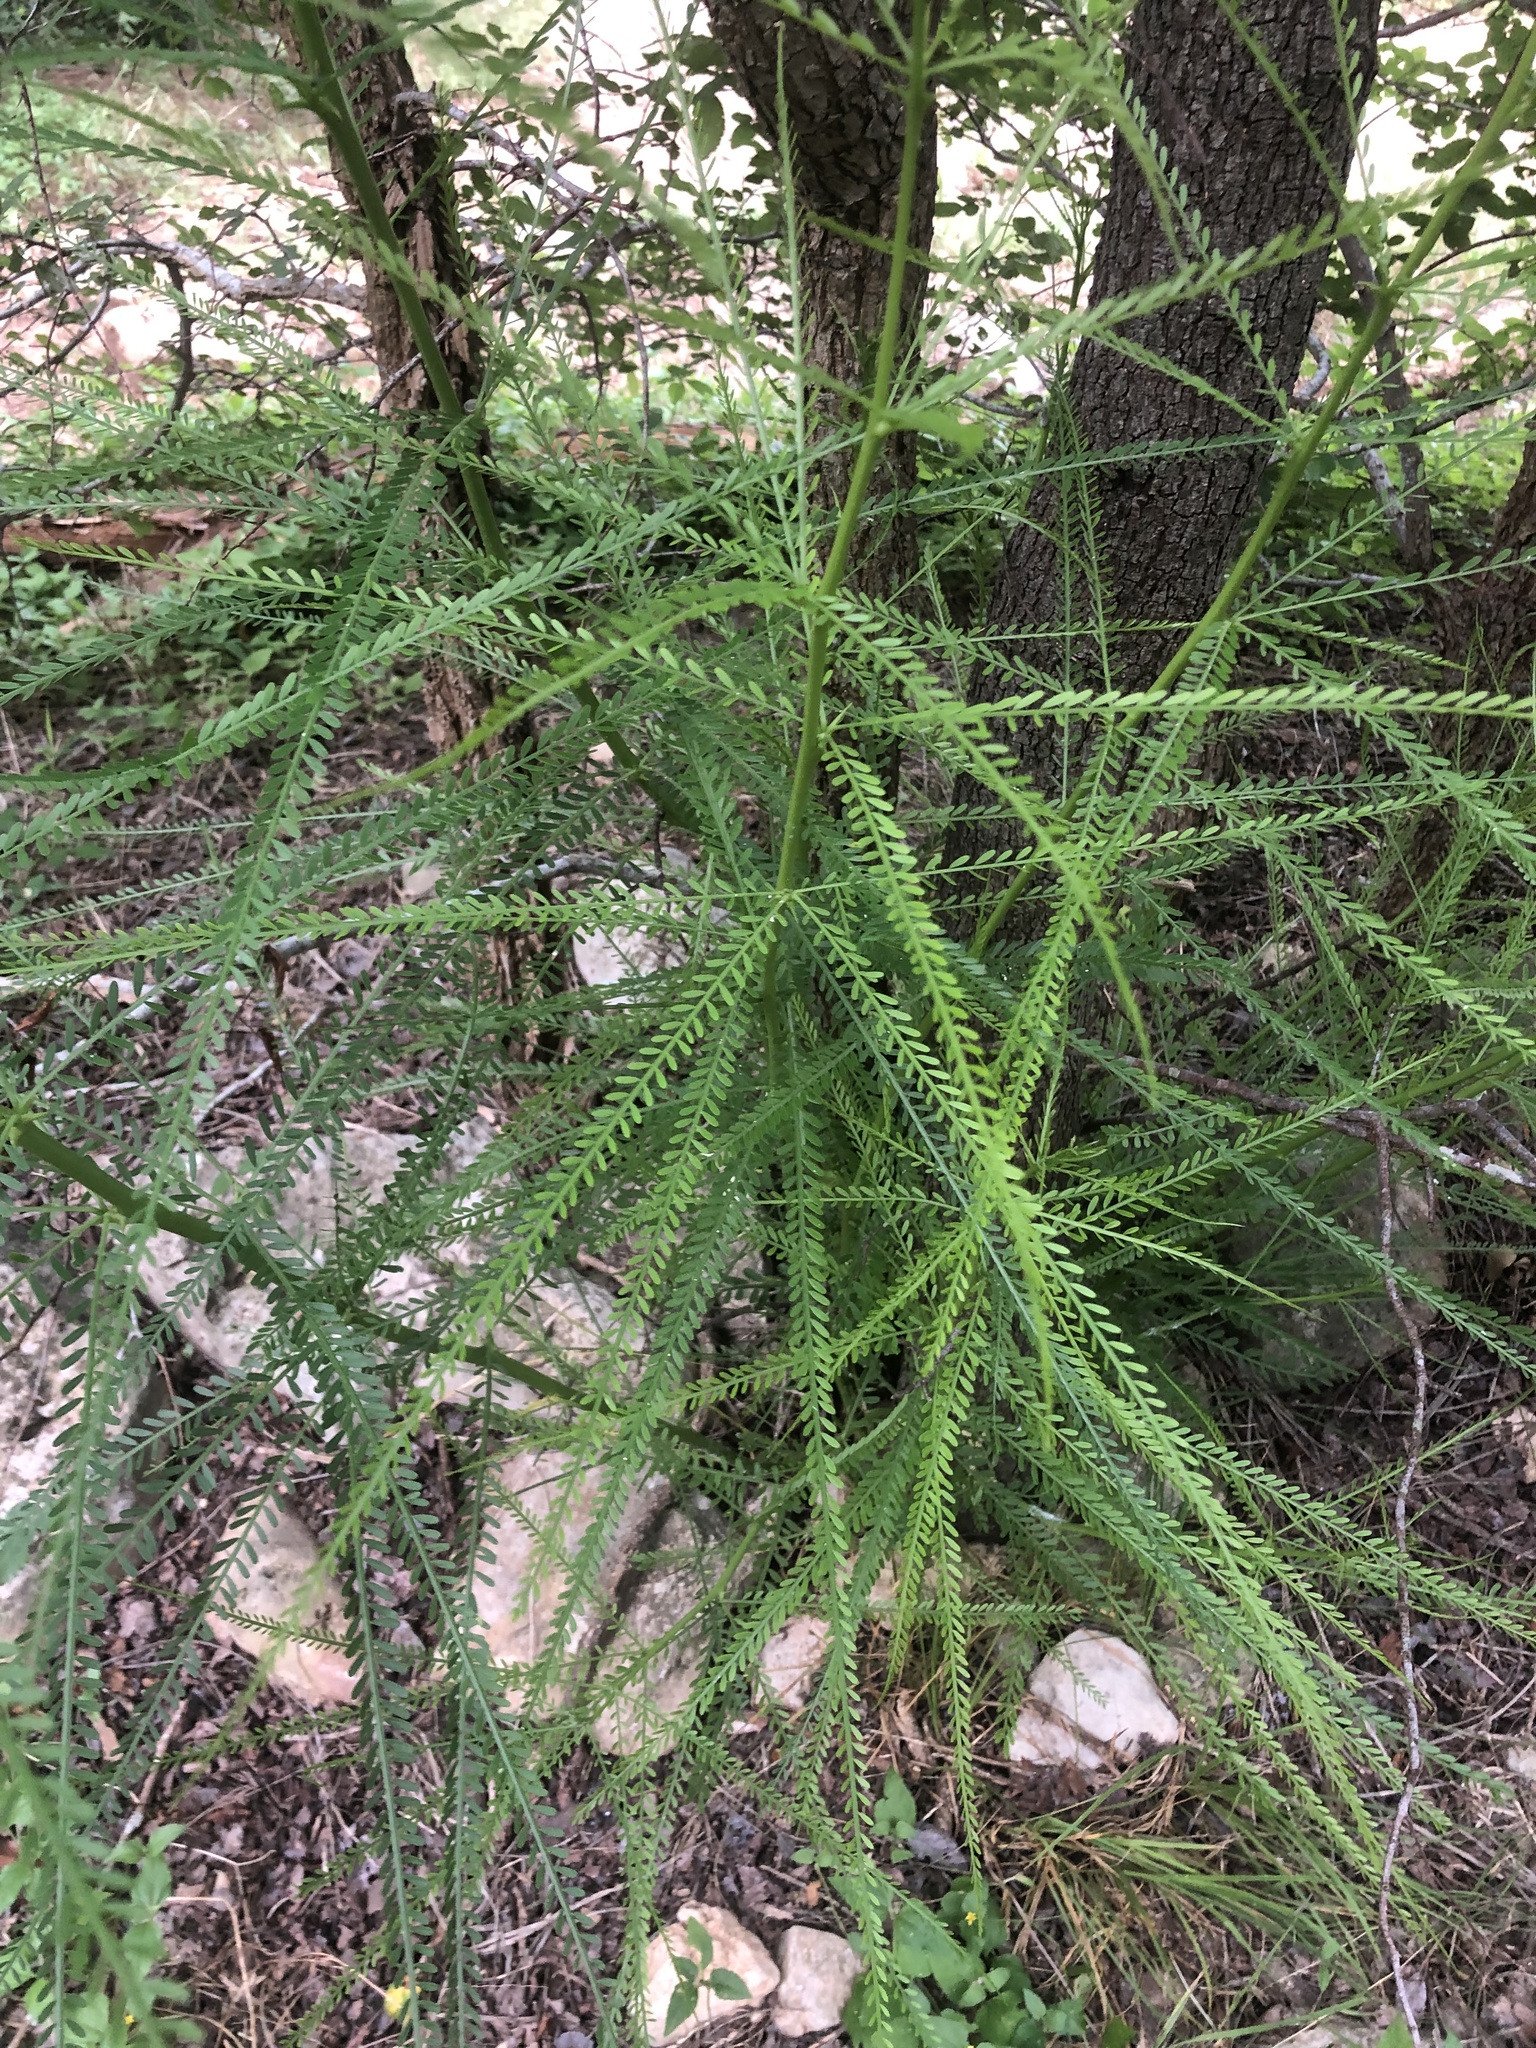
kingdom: Plantae
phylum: Tracheophyta
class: Magnoliopsida
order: Fabales
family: Fabaceae
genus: Parkinsonia
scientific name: Parkinsonia aculeata
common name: Jerusalem thorn
